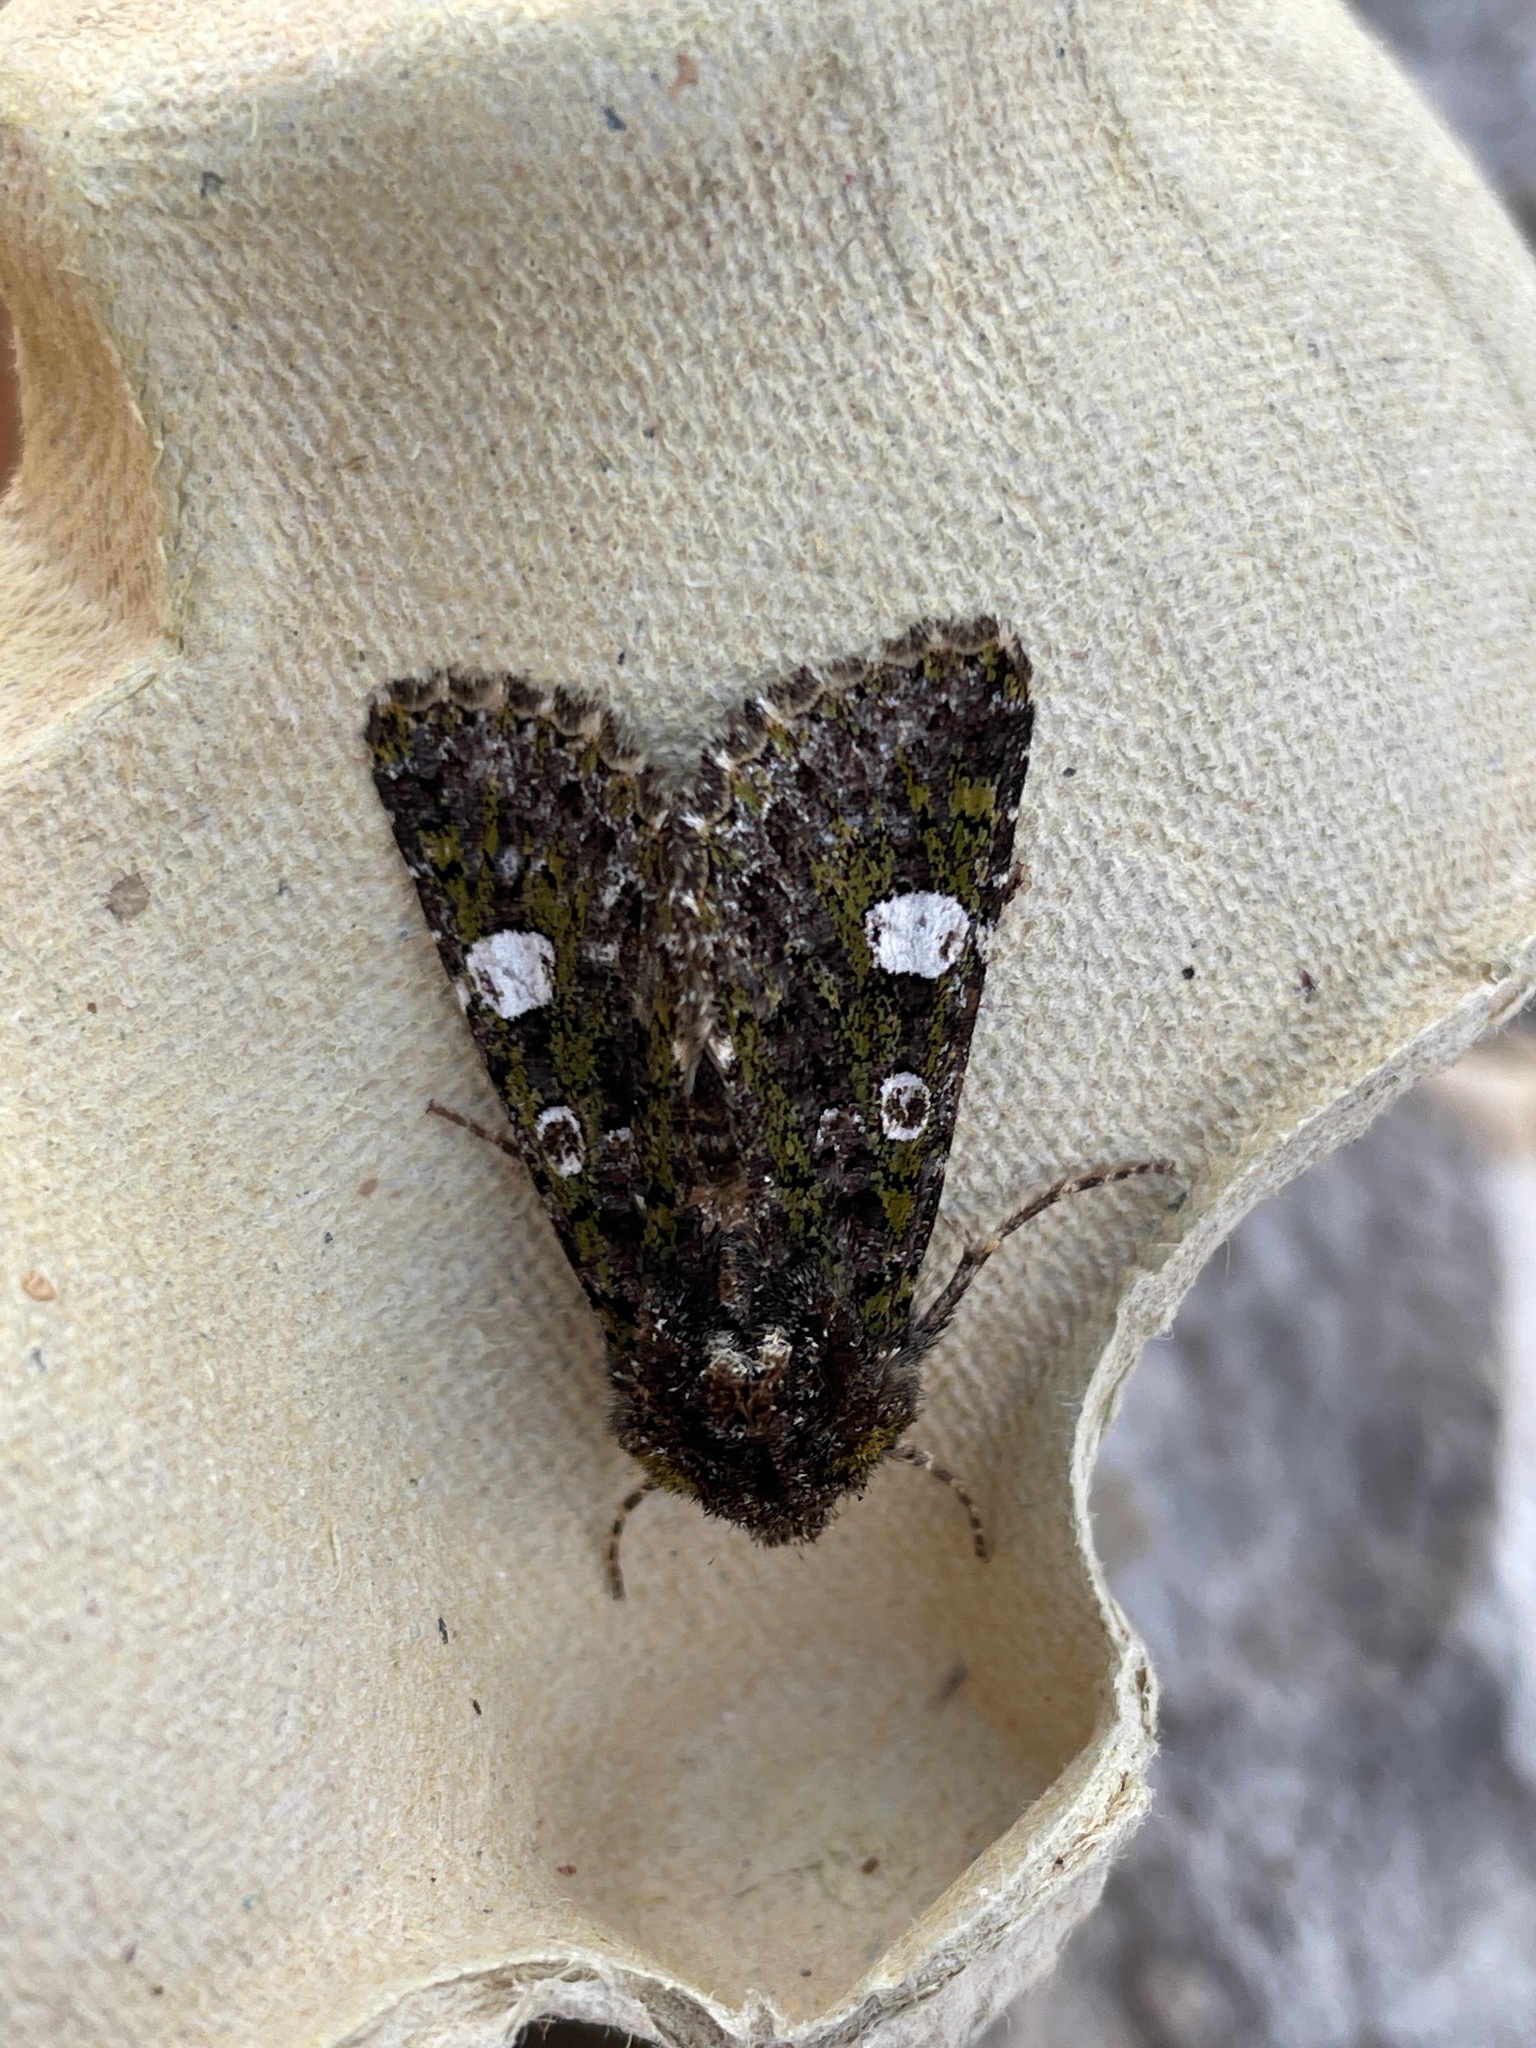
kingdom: Animalia
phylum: Arthropoda
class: Insecta
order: Lepidoptera
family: Noctuidae
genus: Valeria
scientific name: Valeria oleagina
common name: Green-brindled dot
